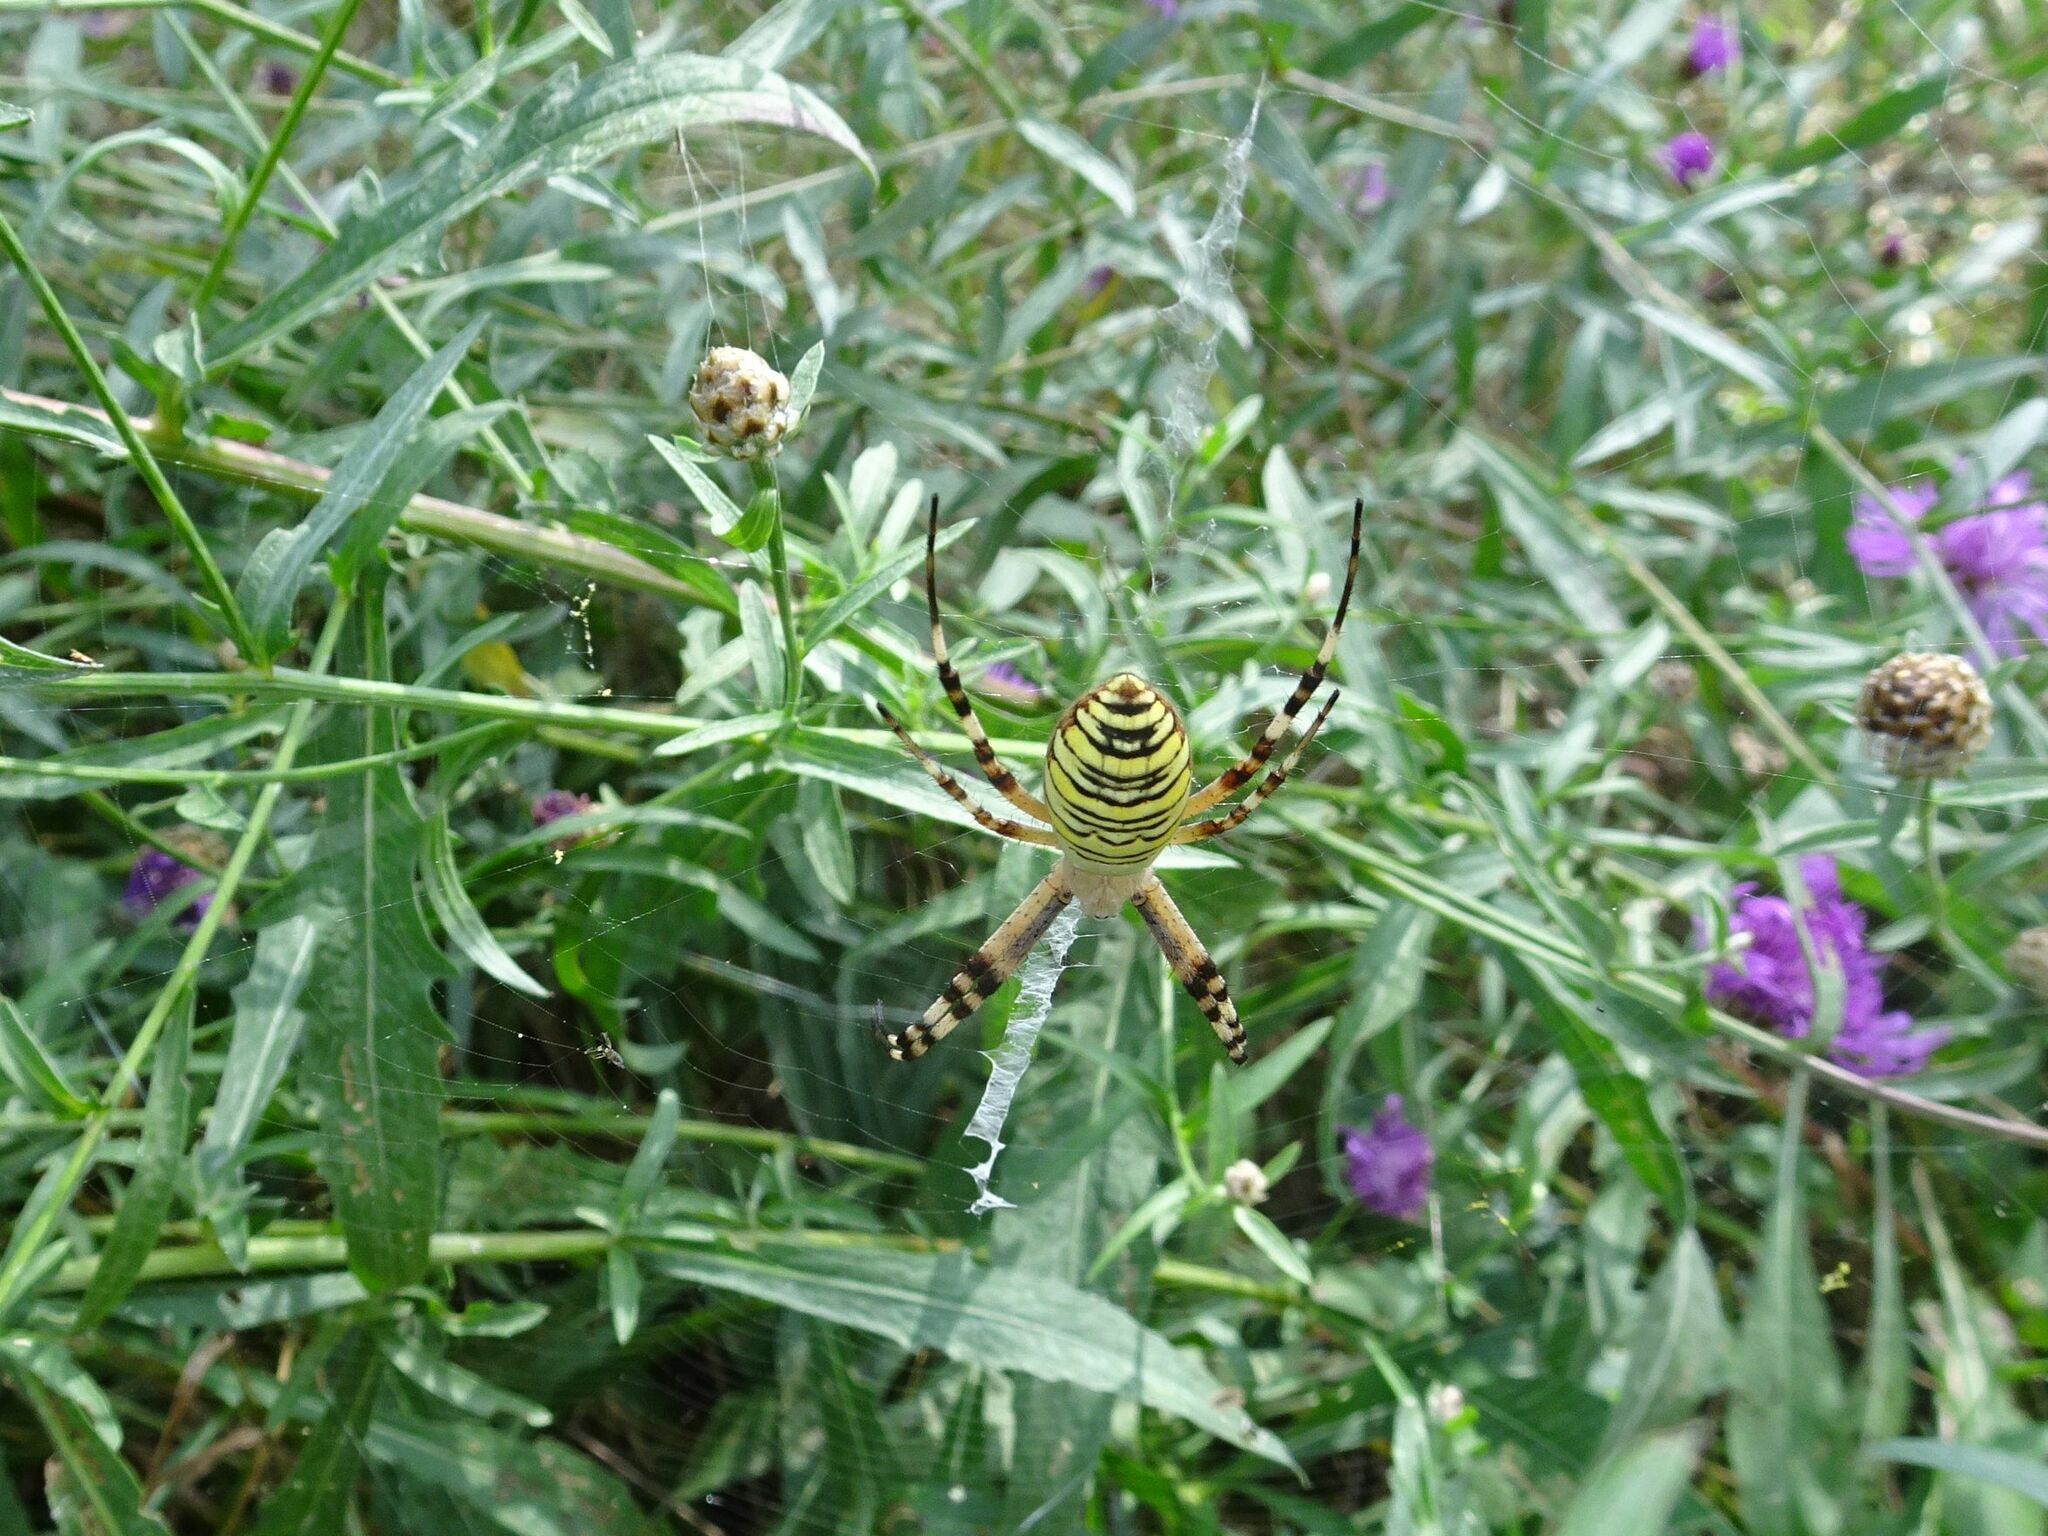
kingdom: Animalia
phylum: Arthropoda
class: Arachnida
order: Araneae
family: Araneidae
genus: Argiope
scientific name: Argiope bruennichi
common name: Wasp spider
